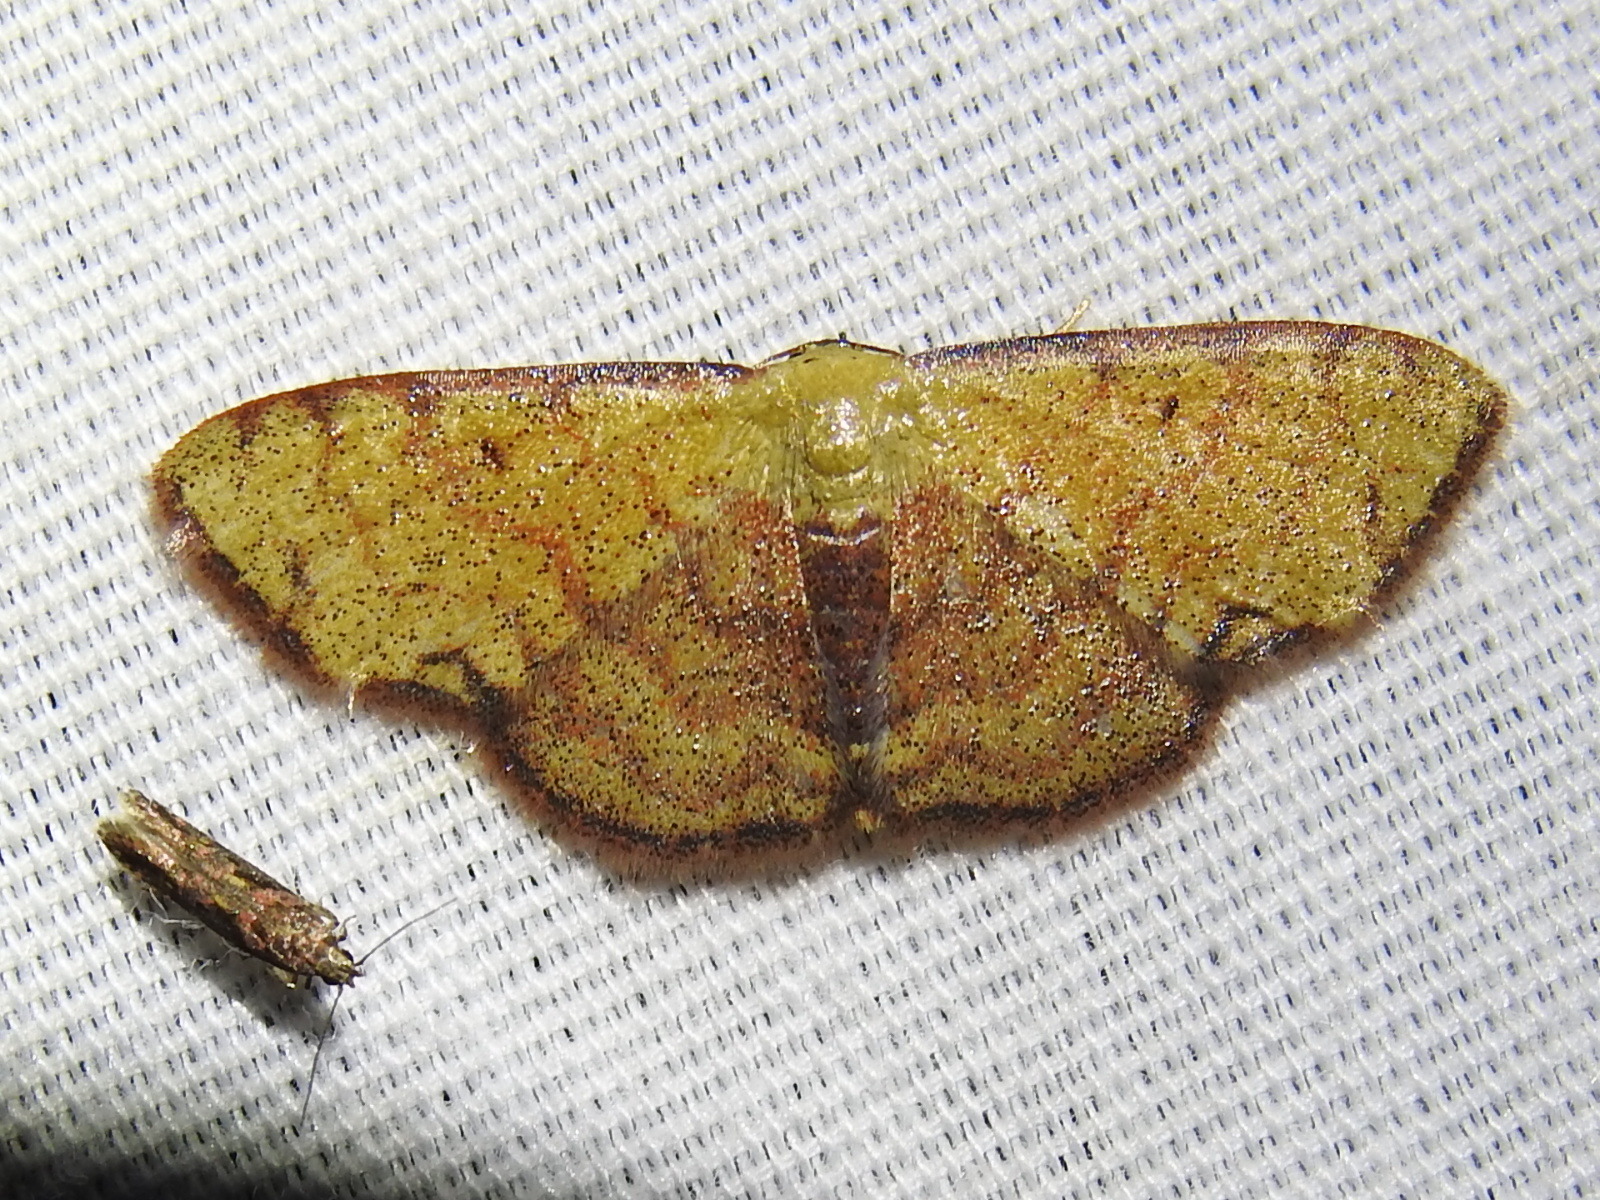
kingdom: Animalia
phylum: Arthropoda
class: Insecta
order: Lepidoptera
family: Geometridae
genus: Semaeopus
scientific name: Semaeopus marginata
